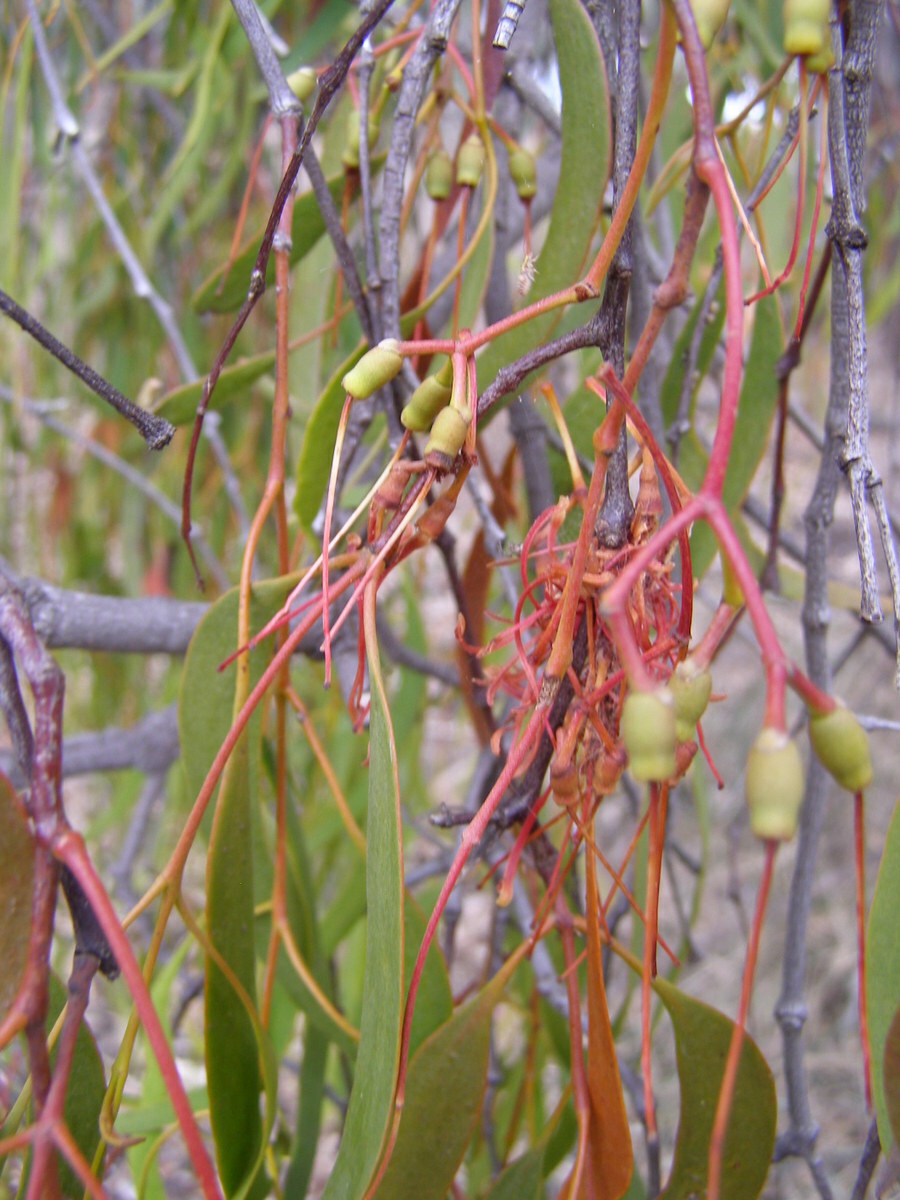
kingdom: Plantae
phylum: Tracheophyta
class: Magnoliopsida
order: Santalales
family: Loranthaceae
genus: Amyema
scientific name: Amyema miquelii
